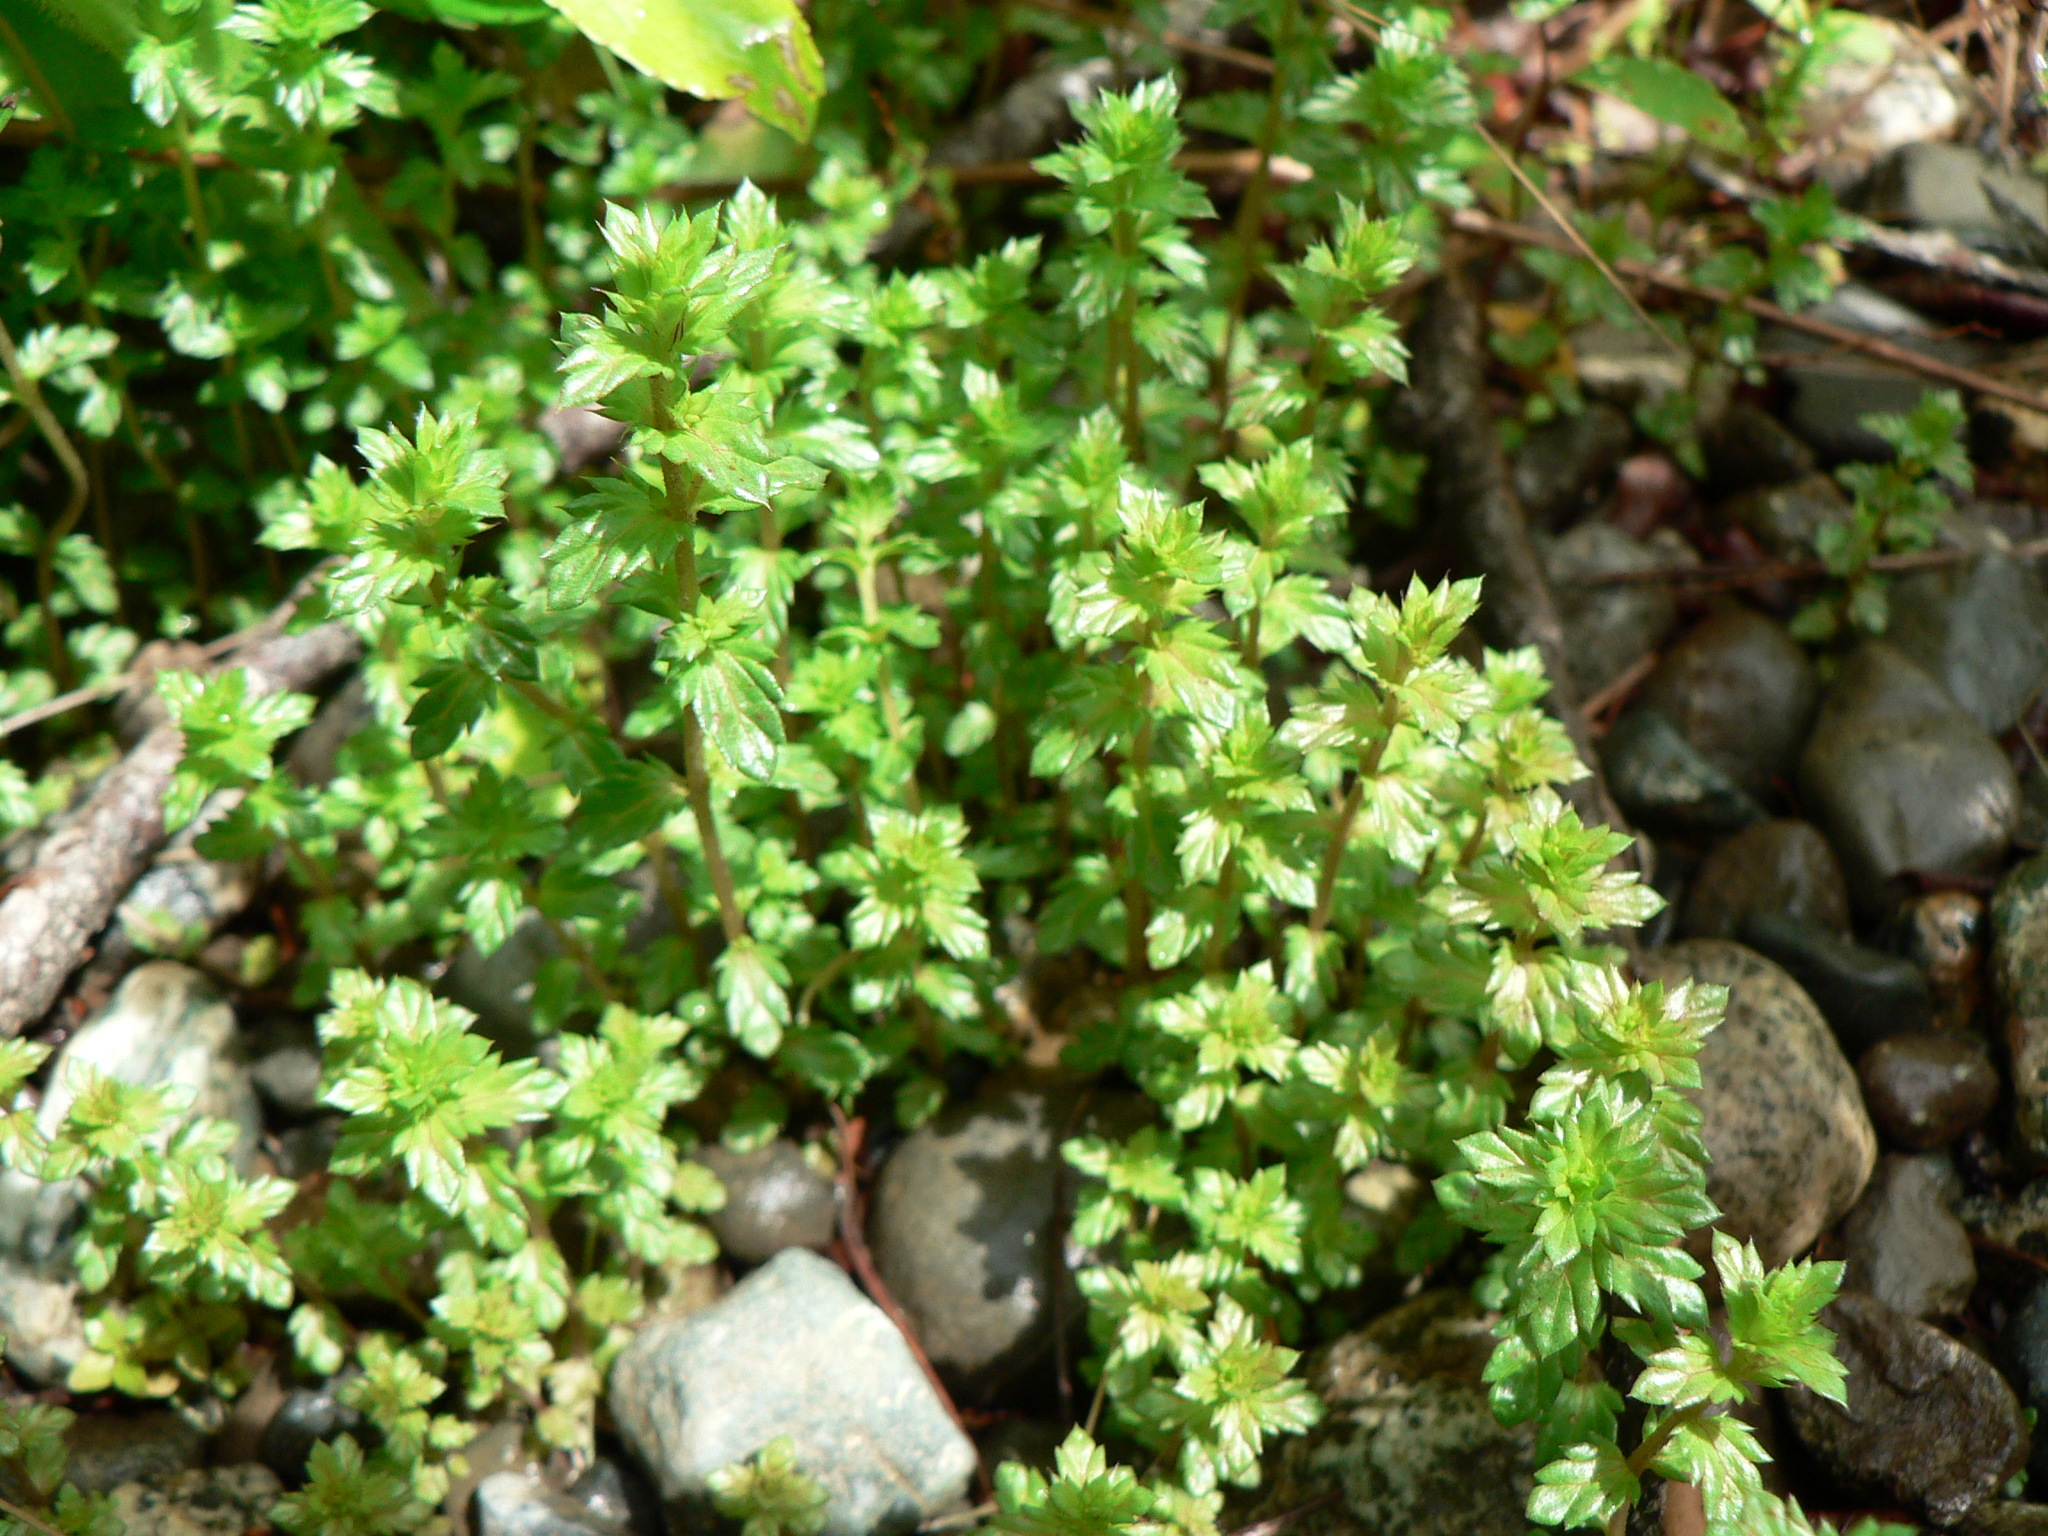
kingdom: Plantae
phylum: Tracheophyta
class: Magnoliopsida
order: Lamiales
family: Orobanchaceae
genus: Euphrasia
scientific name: Euphrasia nemorosa
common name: Common eyebright
